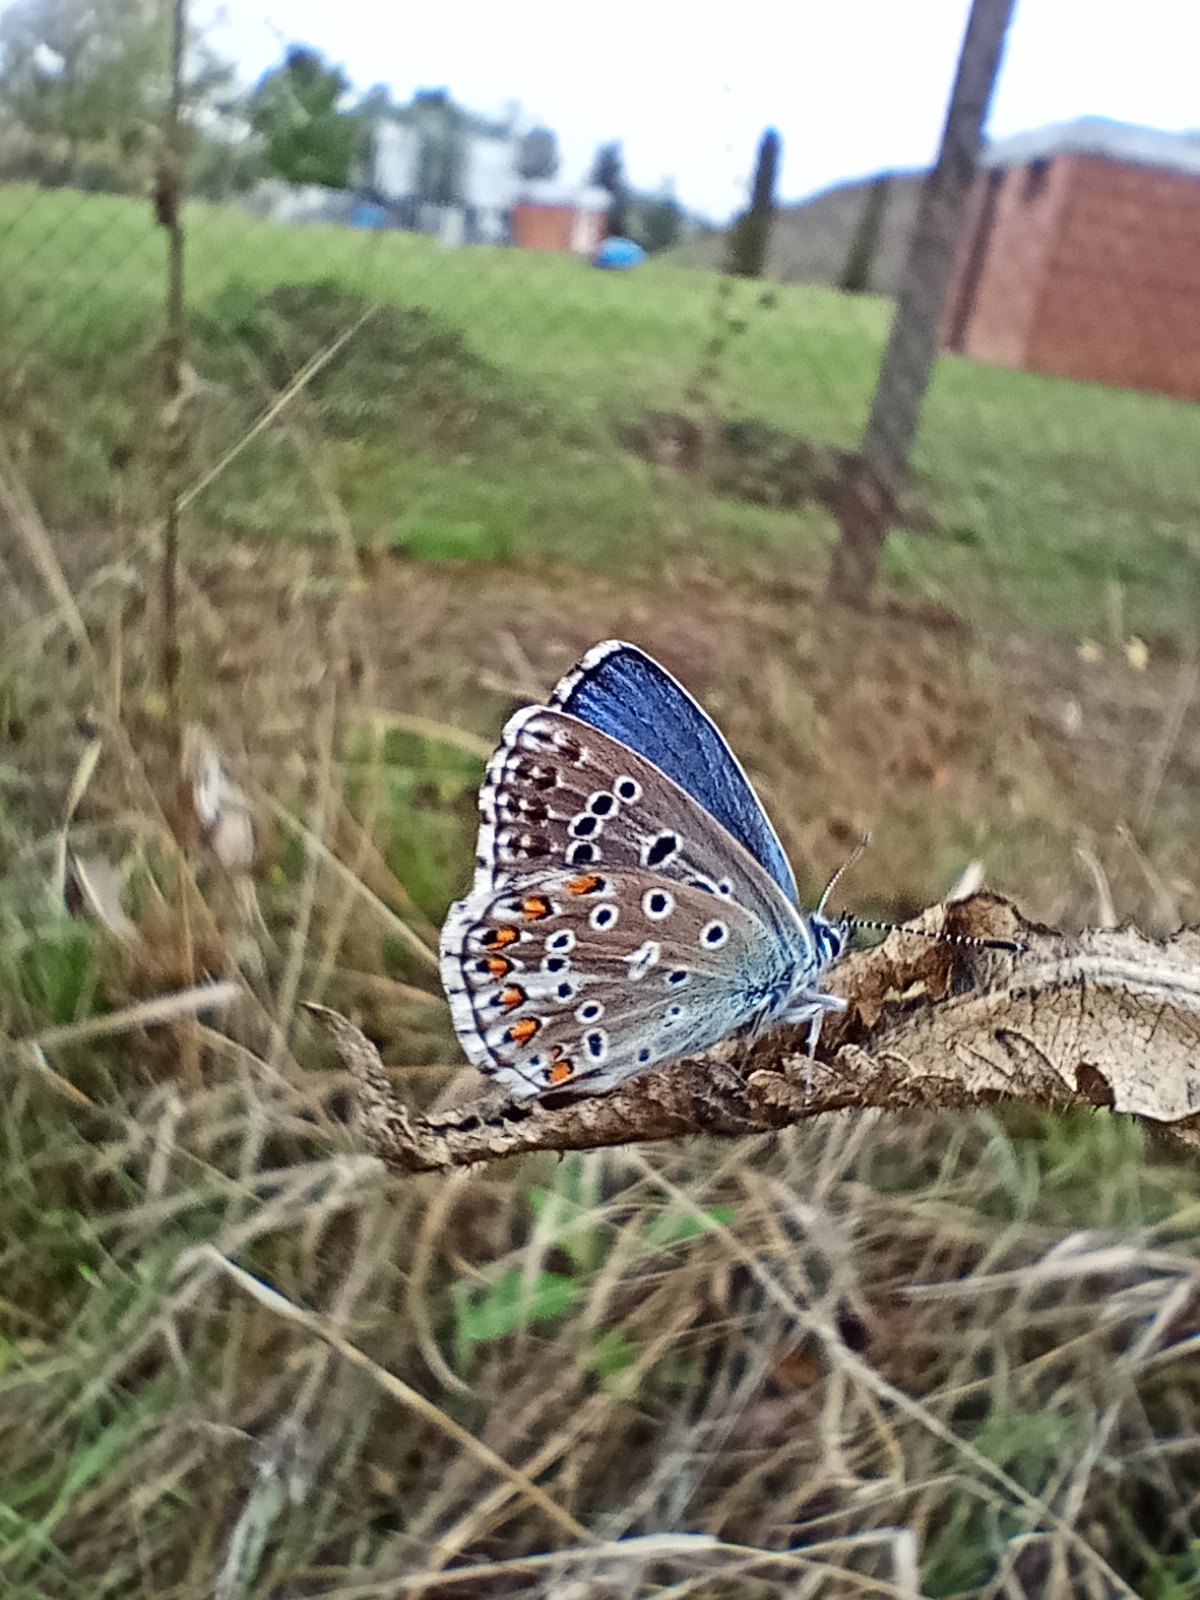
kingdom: Animalia
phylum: Arthropoda
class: Insecta
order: Lepidoptera
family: Lycaenidae
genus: Lysandra
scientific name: Lysandra bellargus
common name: Adonis blue
